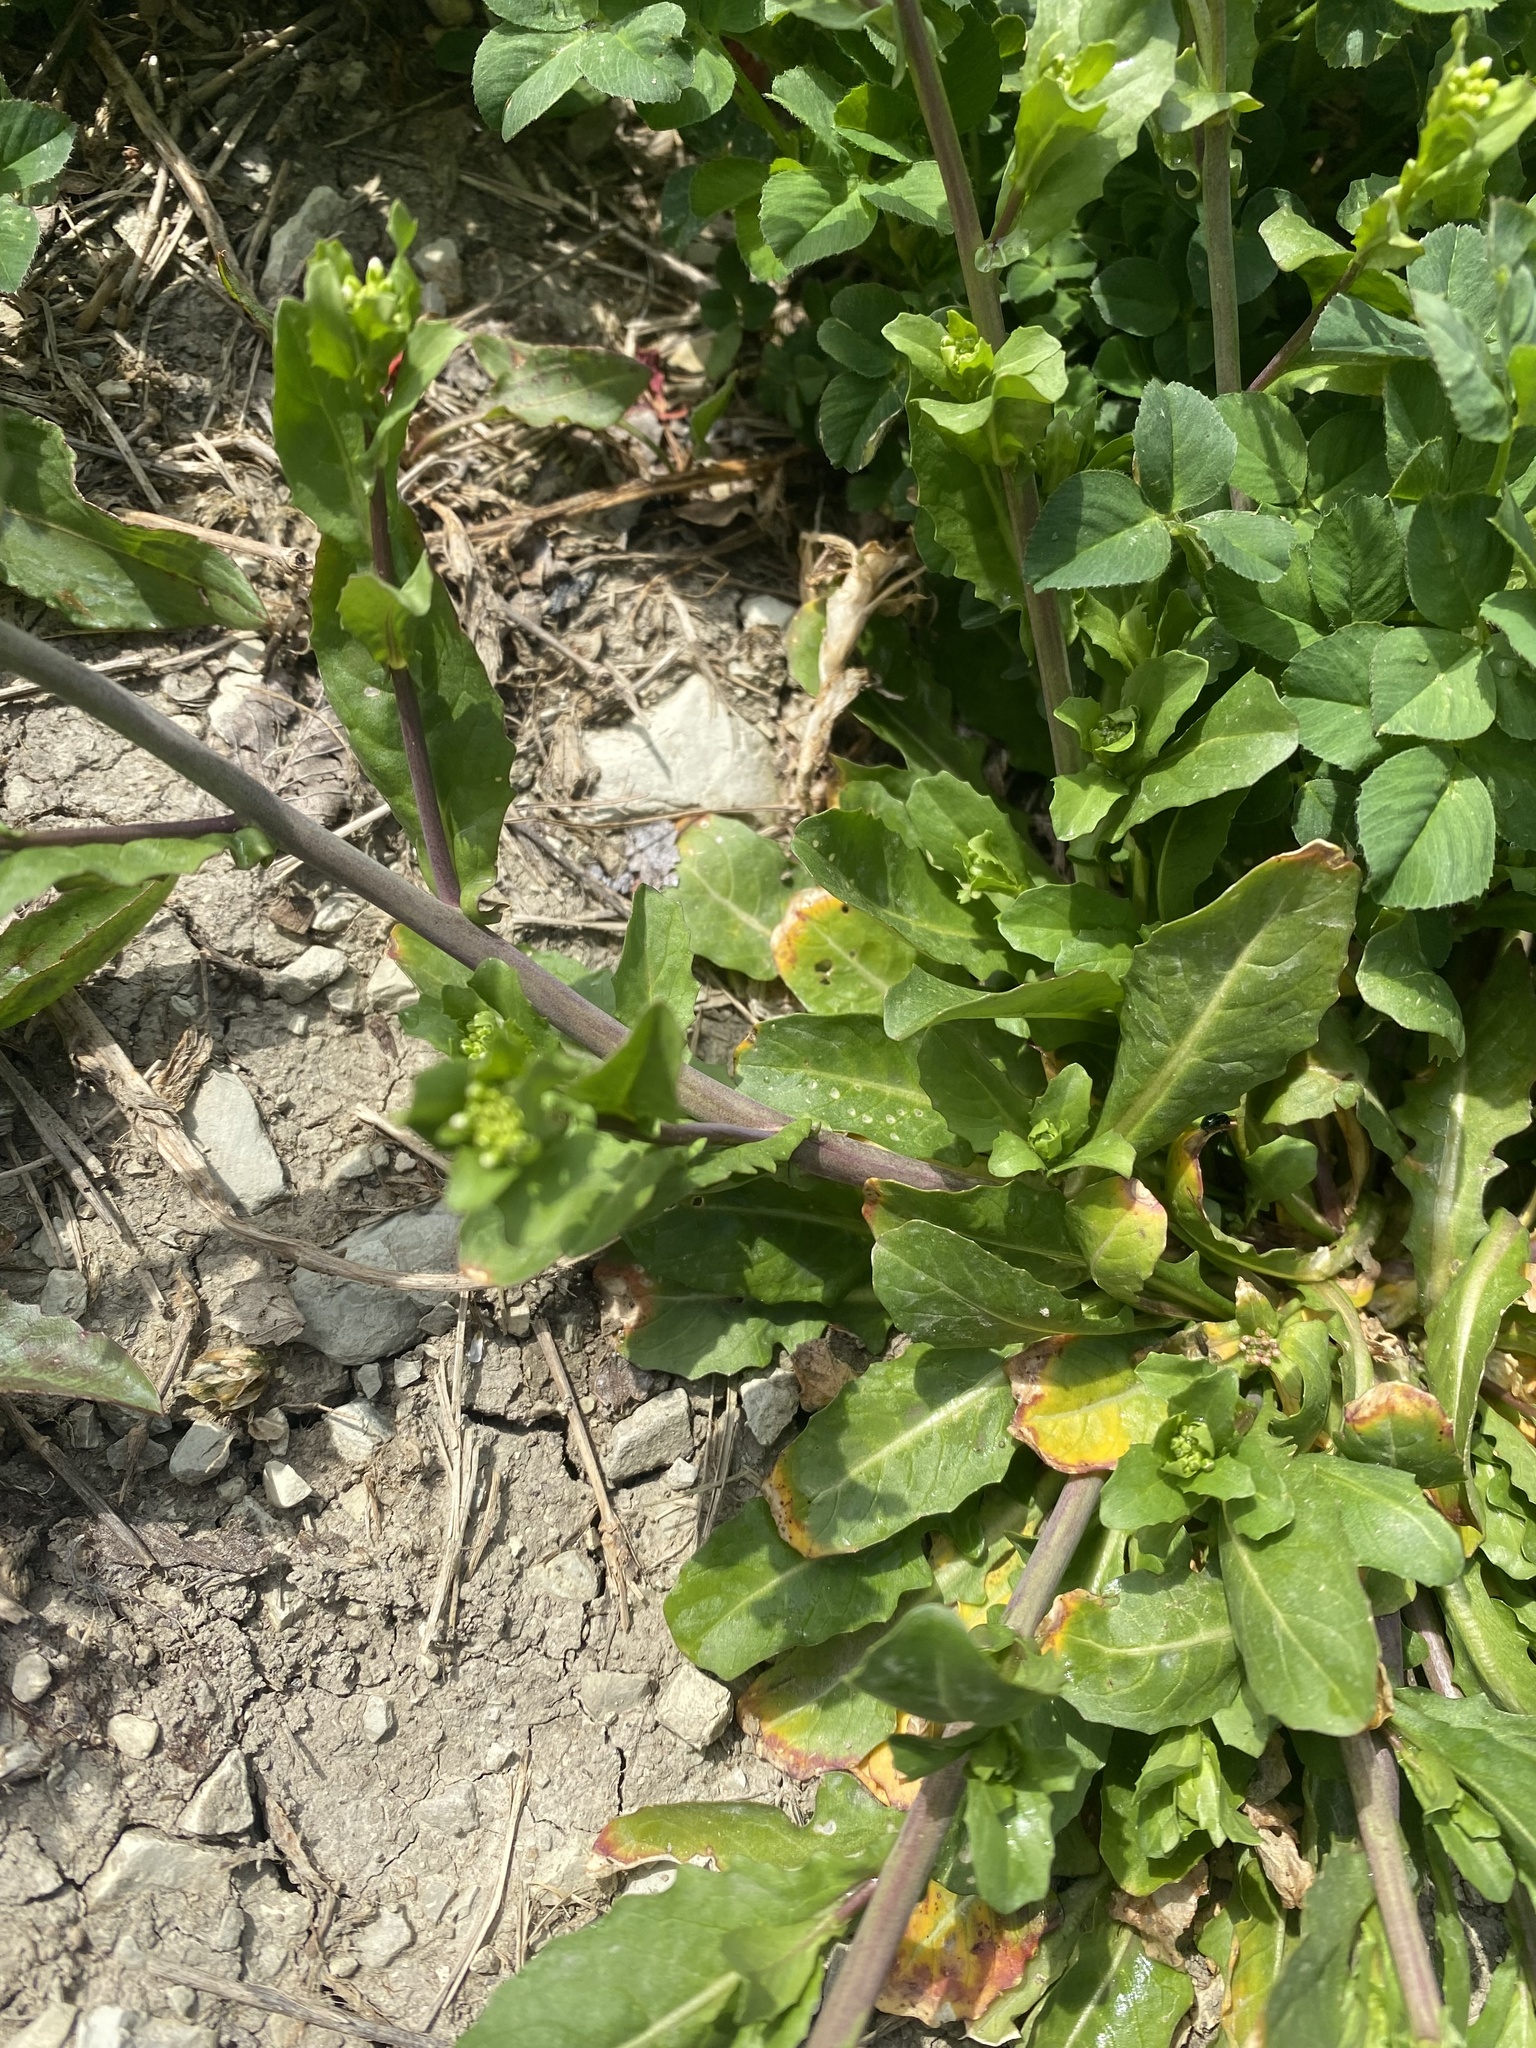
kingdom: Plantae
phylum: Tracheophyta
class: Magnoliopsida
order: Brassicales
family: Brassicaceae
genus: Calepina
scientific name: Calepina irregularis
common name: White ballmustard
